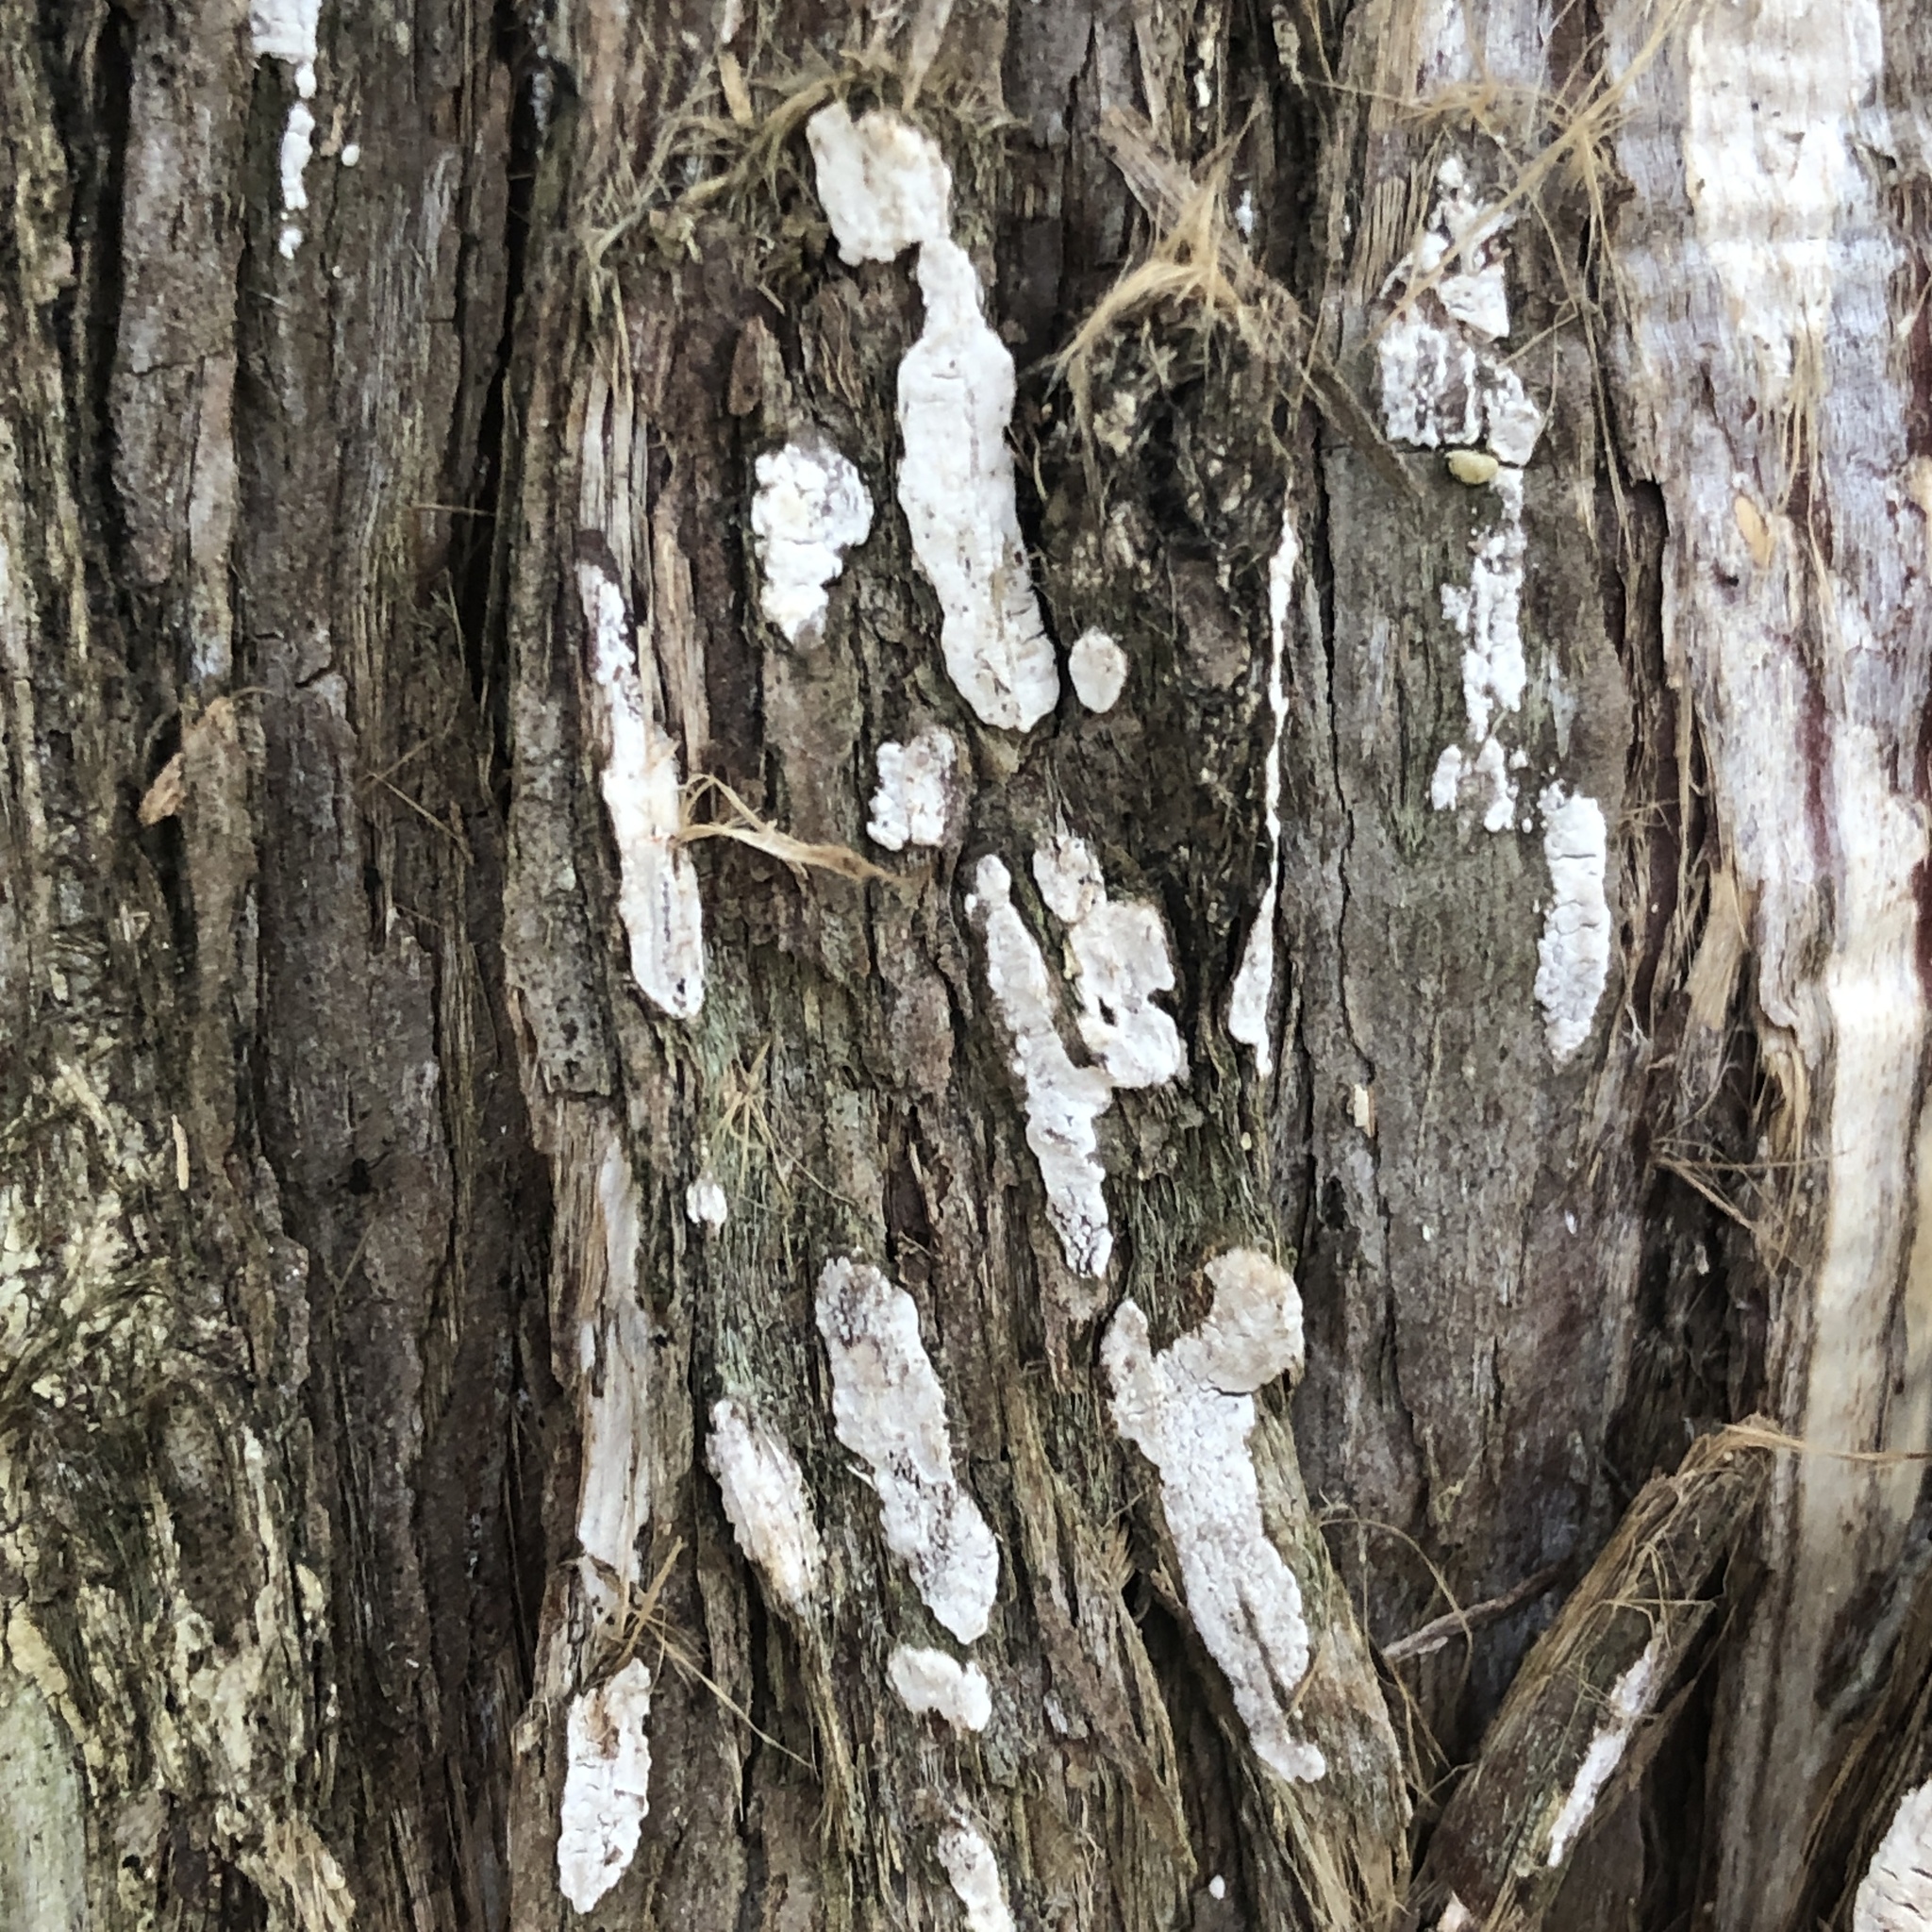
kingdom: Fungi
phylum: Basidiomycota
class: Agaricomycetes
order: Agaricales
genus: Dendrothele
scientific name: Dendrothele nivosa
